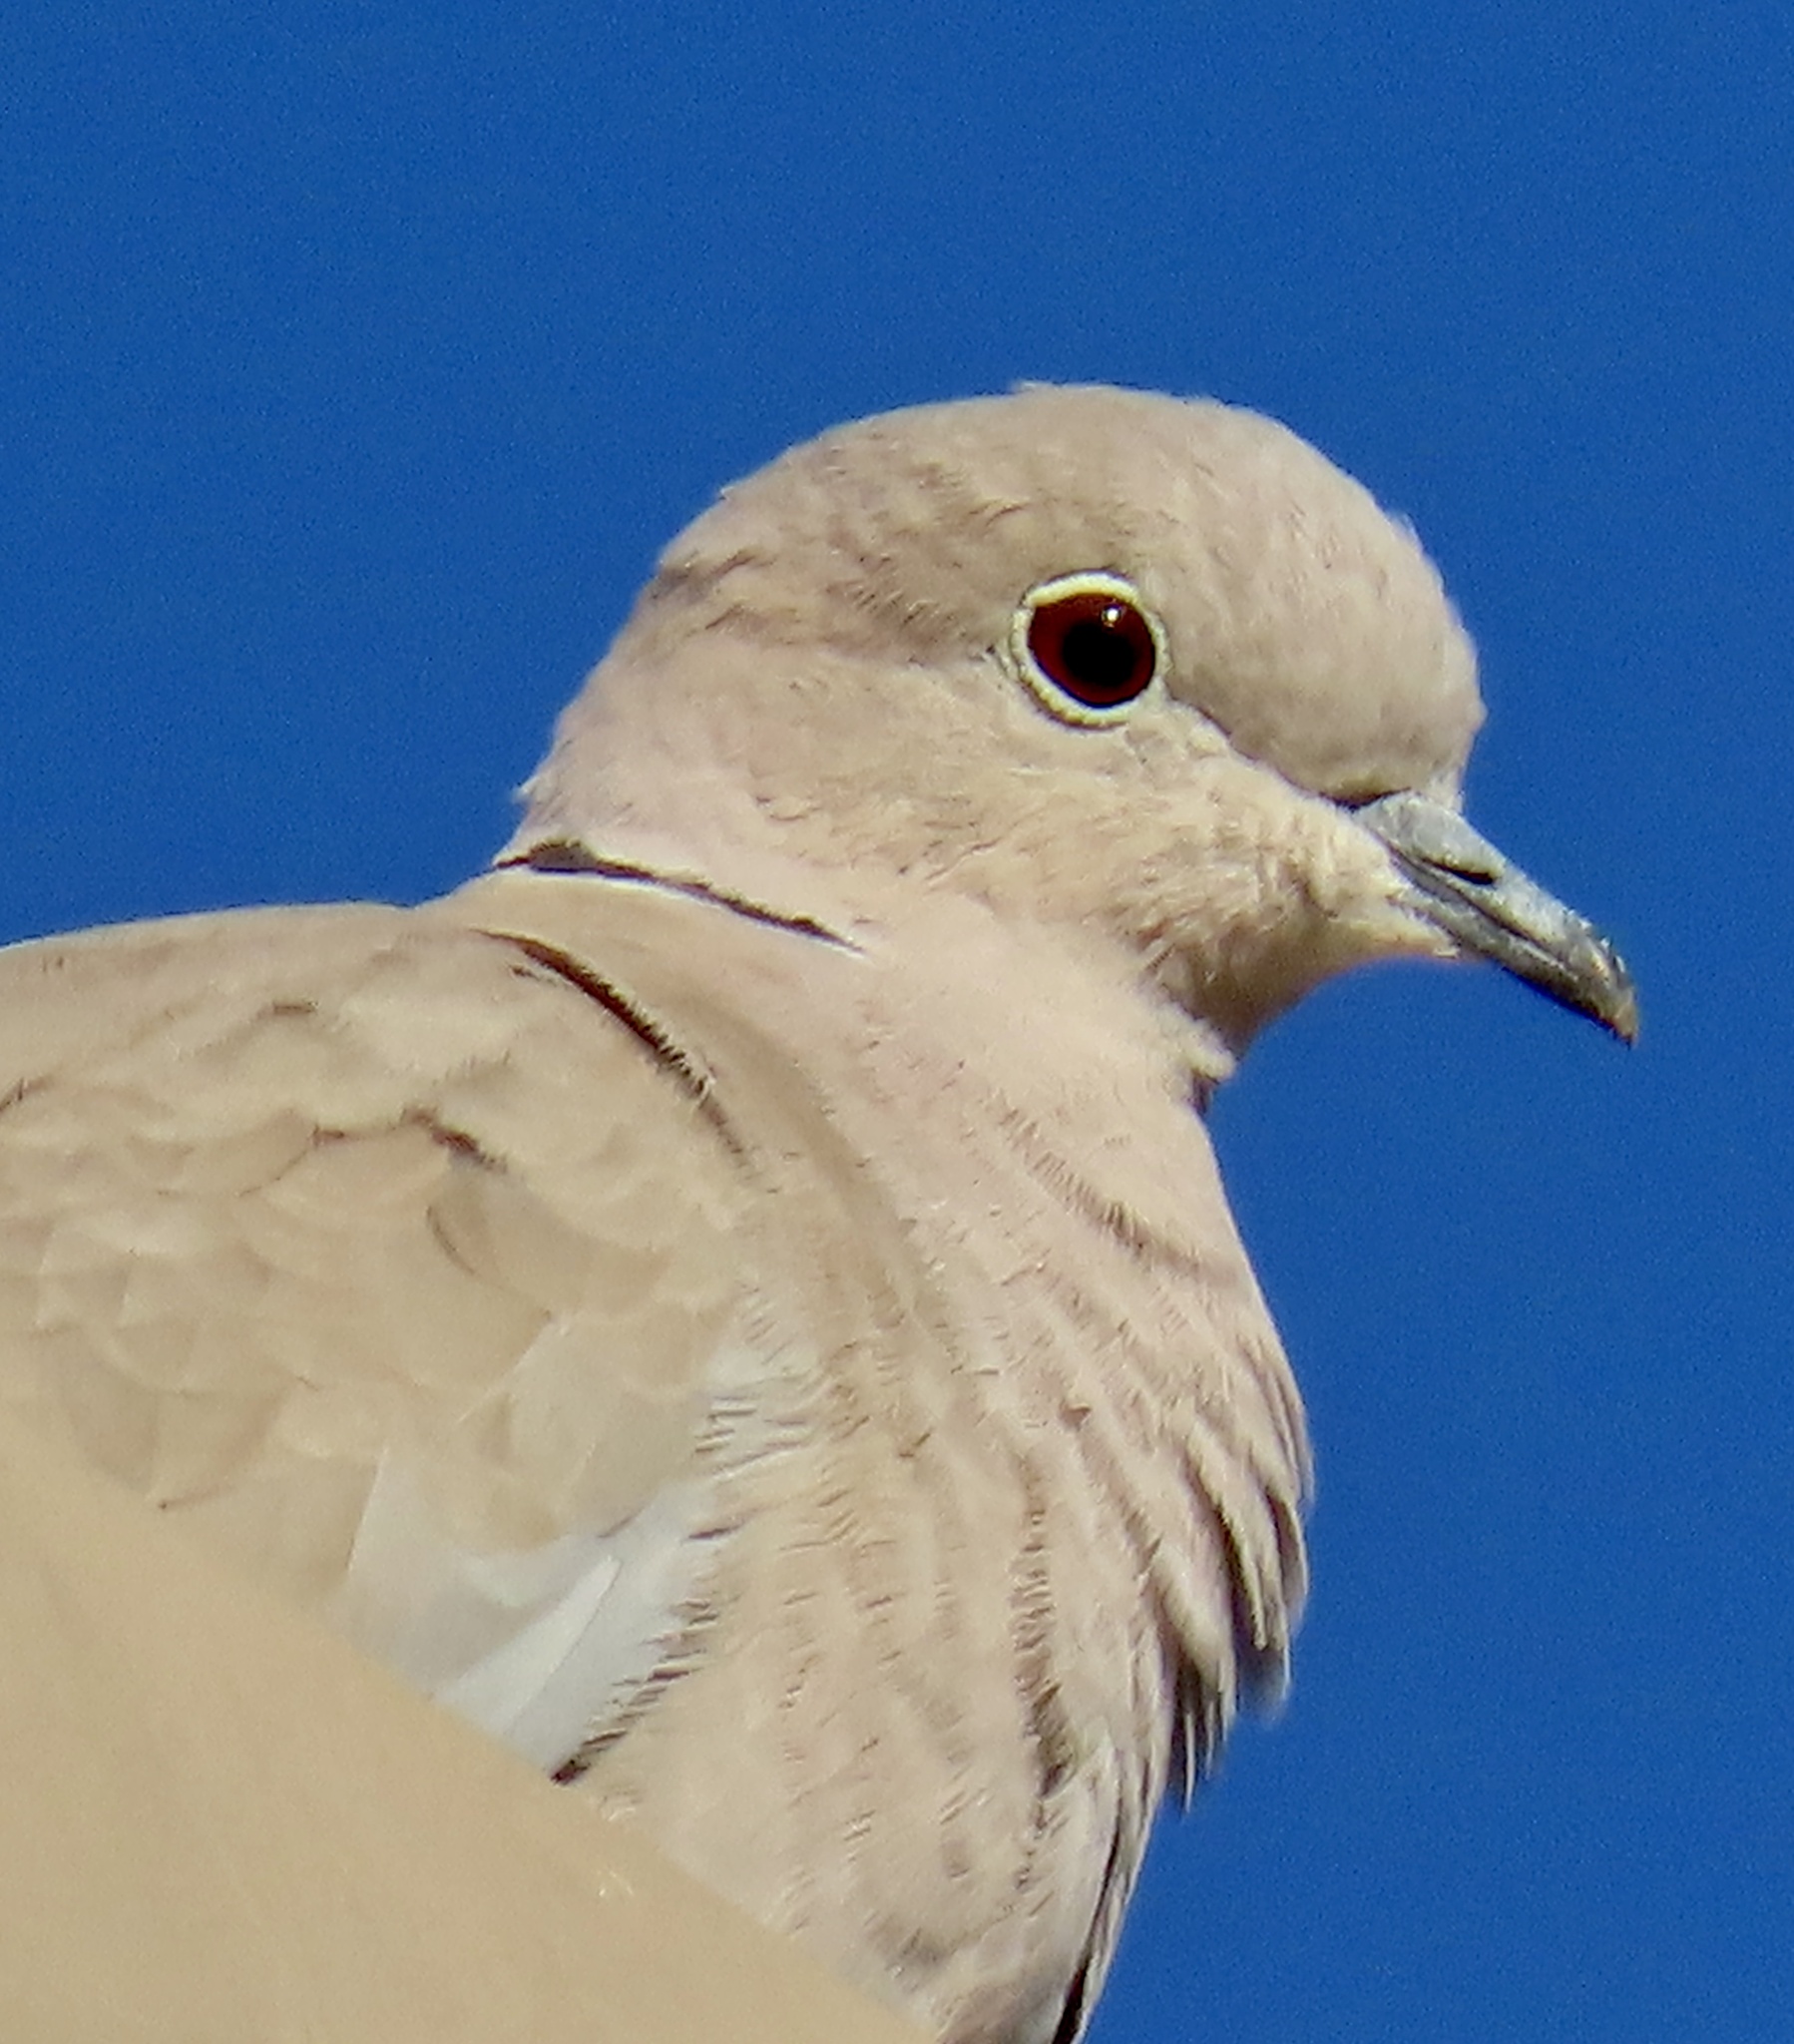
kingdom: Animalia
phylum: Chordata
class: Aves
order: Columbiformes
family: Columbidae
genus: Streptopelia
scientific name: Streptopelia decaocto
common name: Eurasian collared dove
